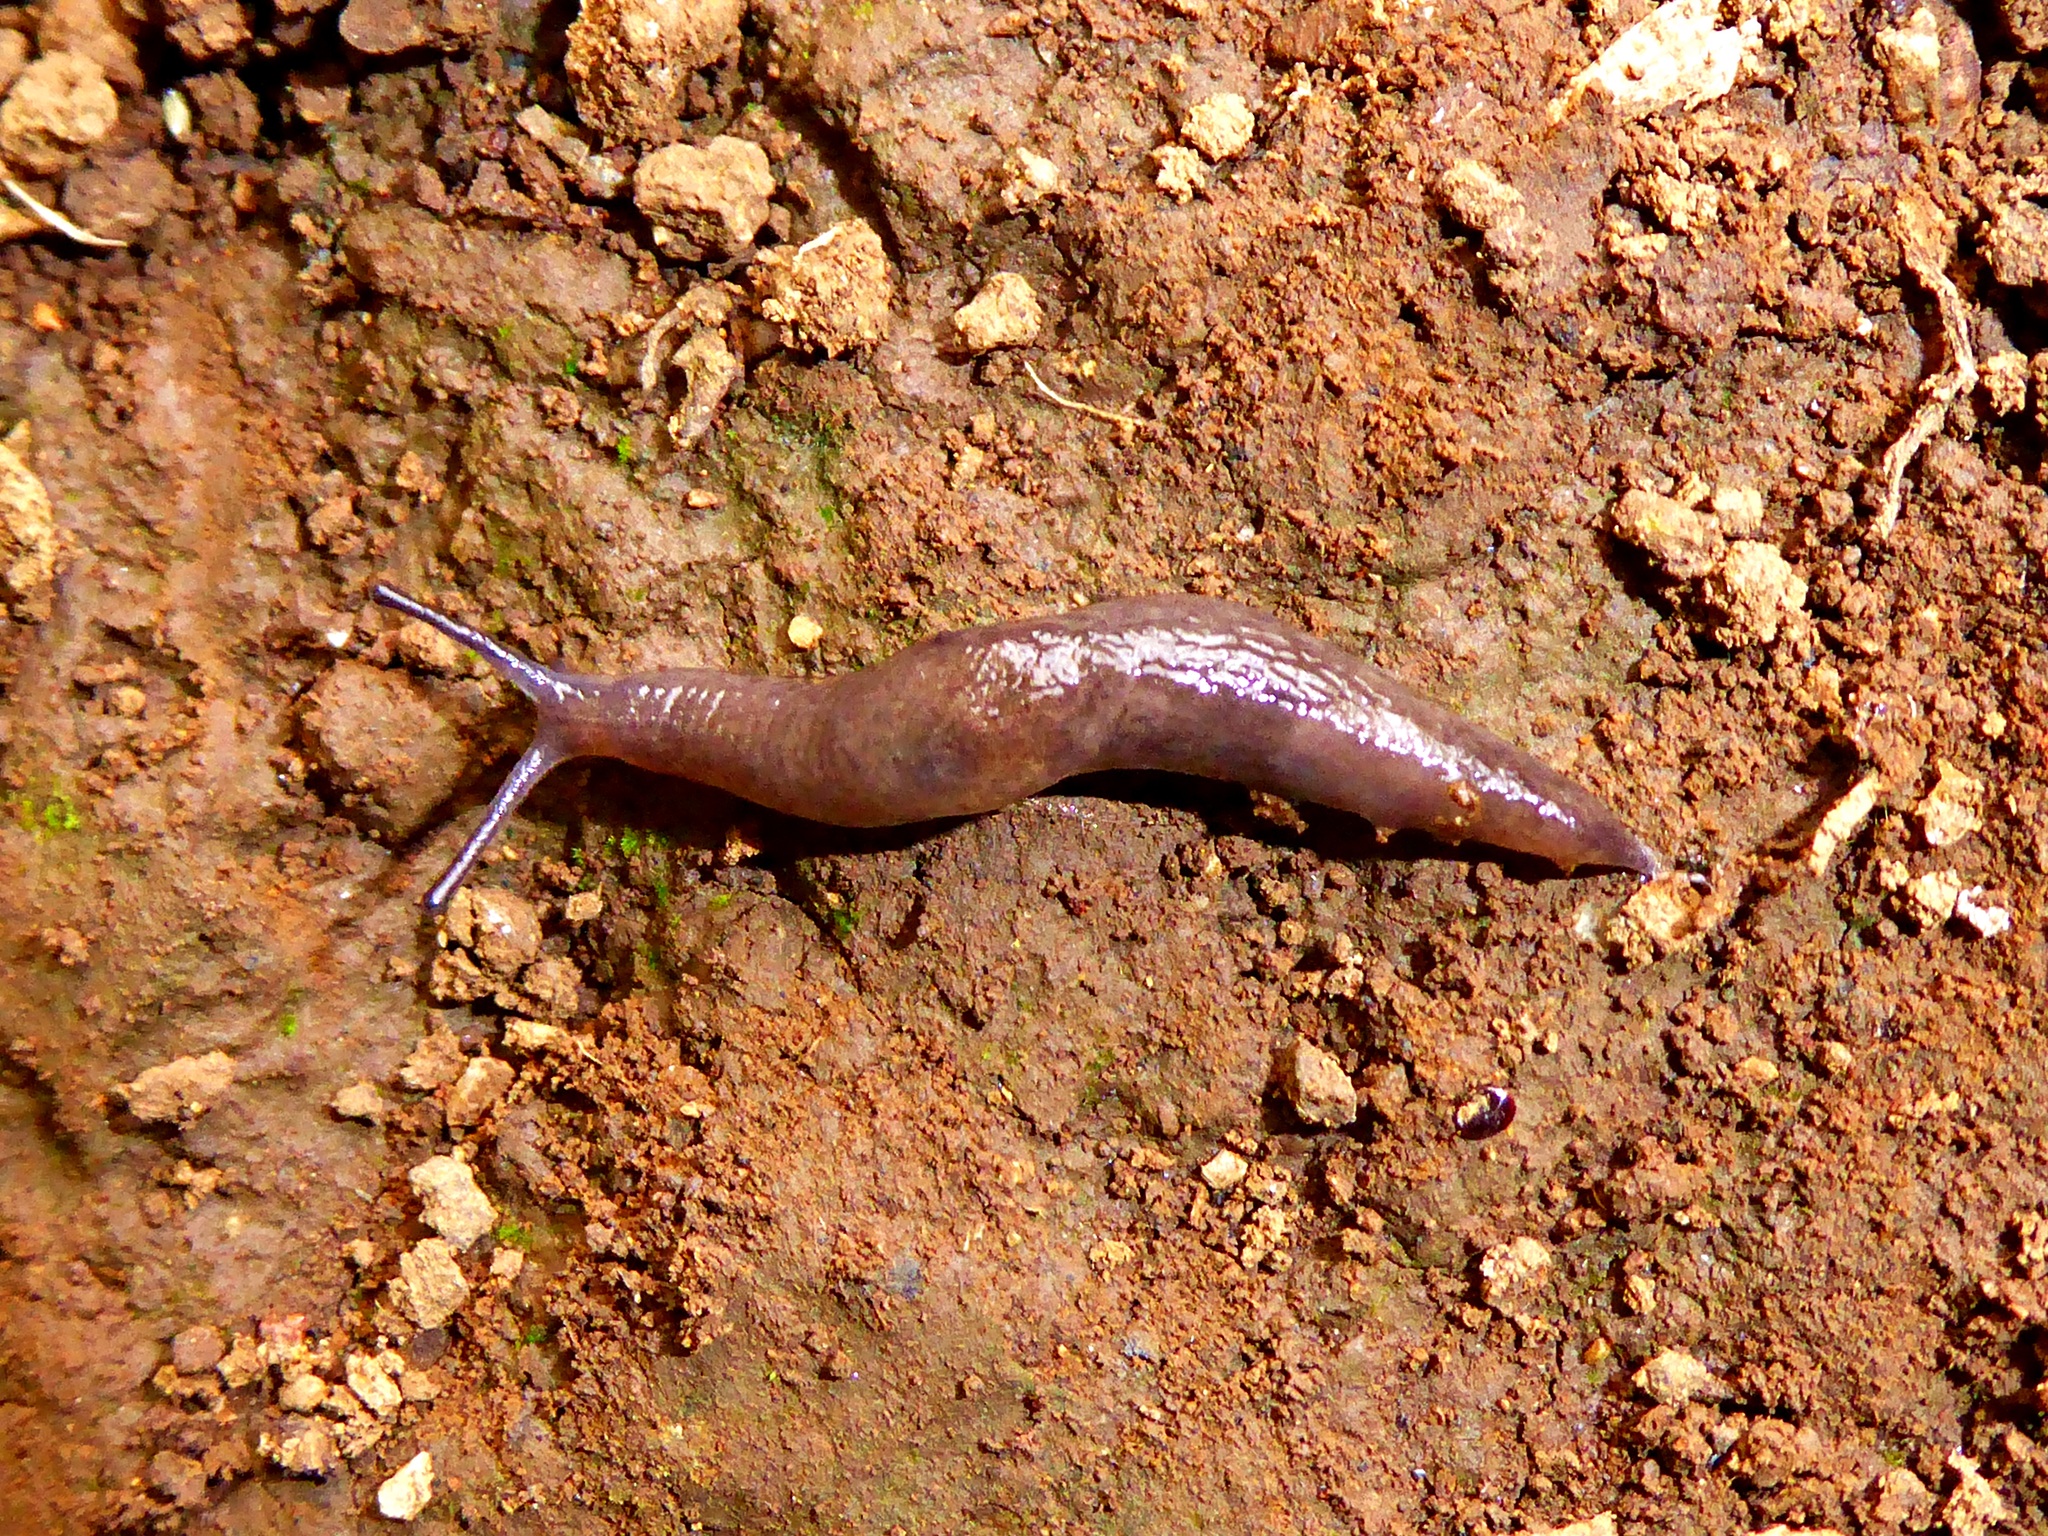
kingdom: Animalia
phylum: Mollusca
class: Gastropoda
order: Stylommatophora
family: Agriolimacidae
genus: Deroceras
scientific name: Deroceras laeve
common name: Marsh slug
